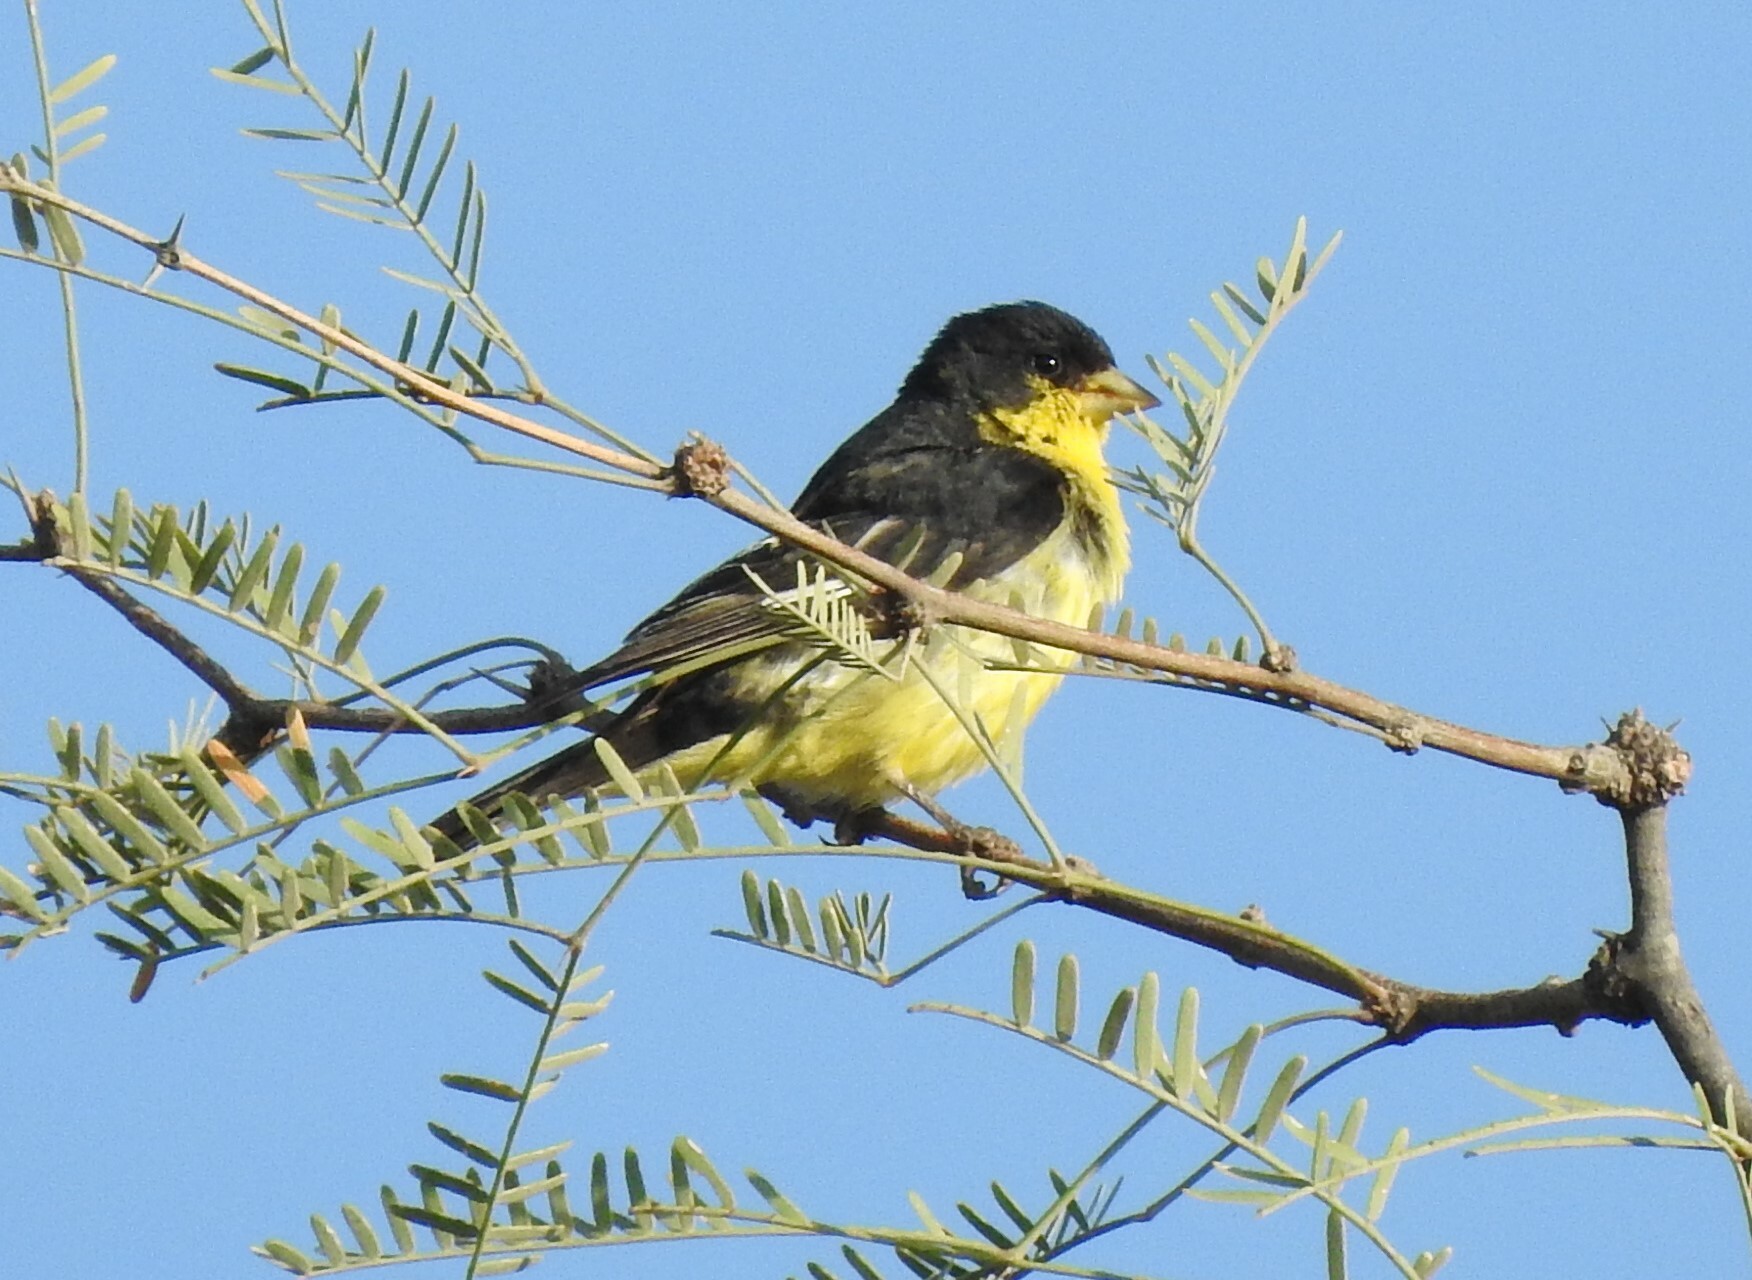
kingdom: Animalia
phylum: Chordata
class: Aves
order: Passeriformes
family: Fringillidae
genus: Spinus
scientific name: Spinus psaltria
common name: Lesser goldfinch
